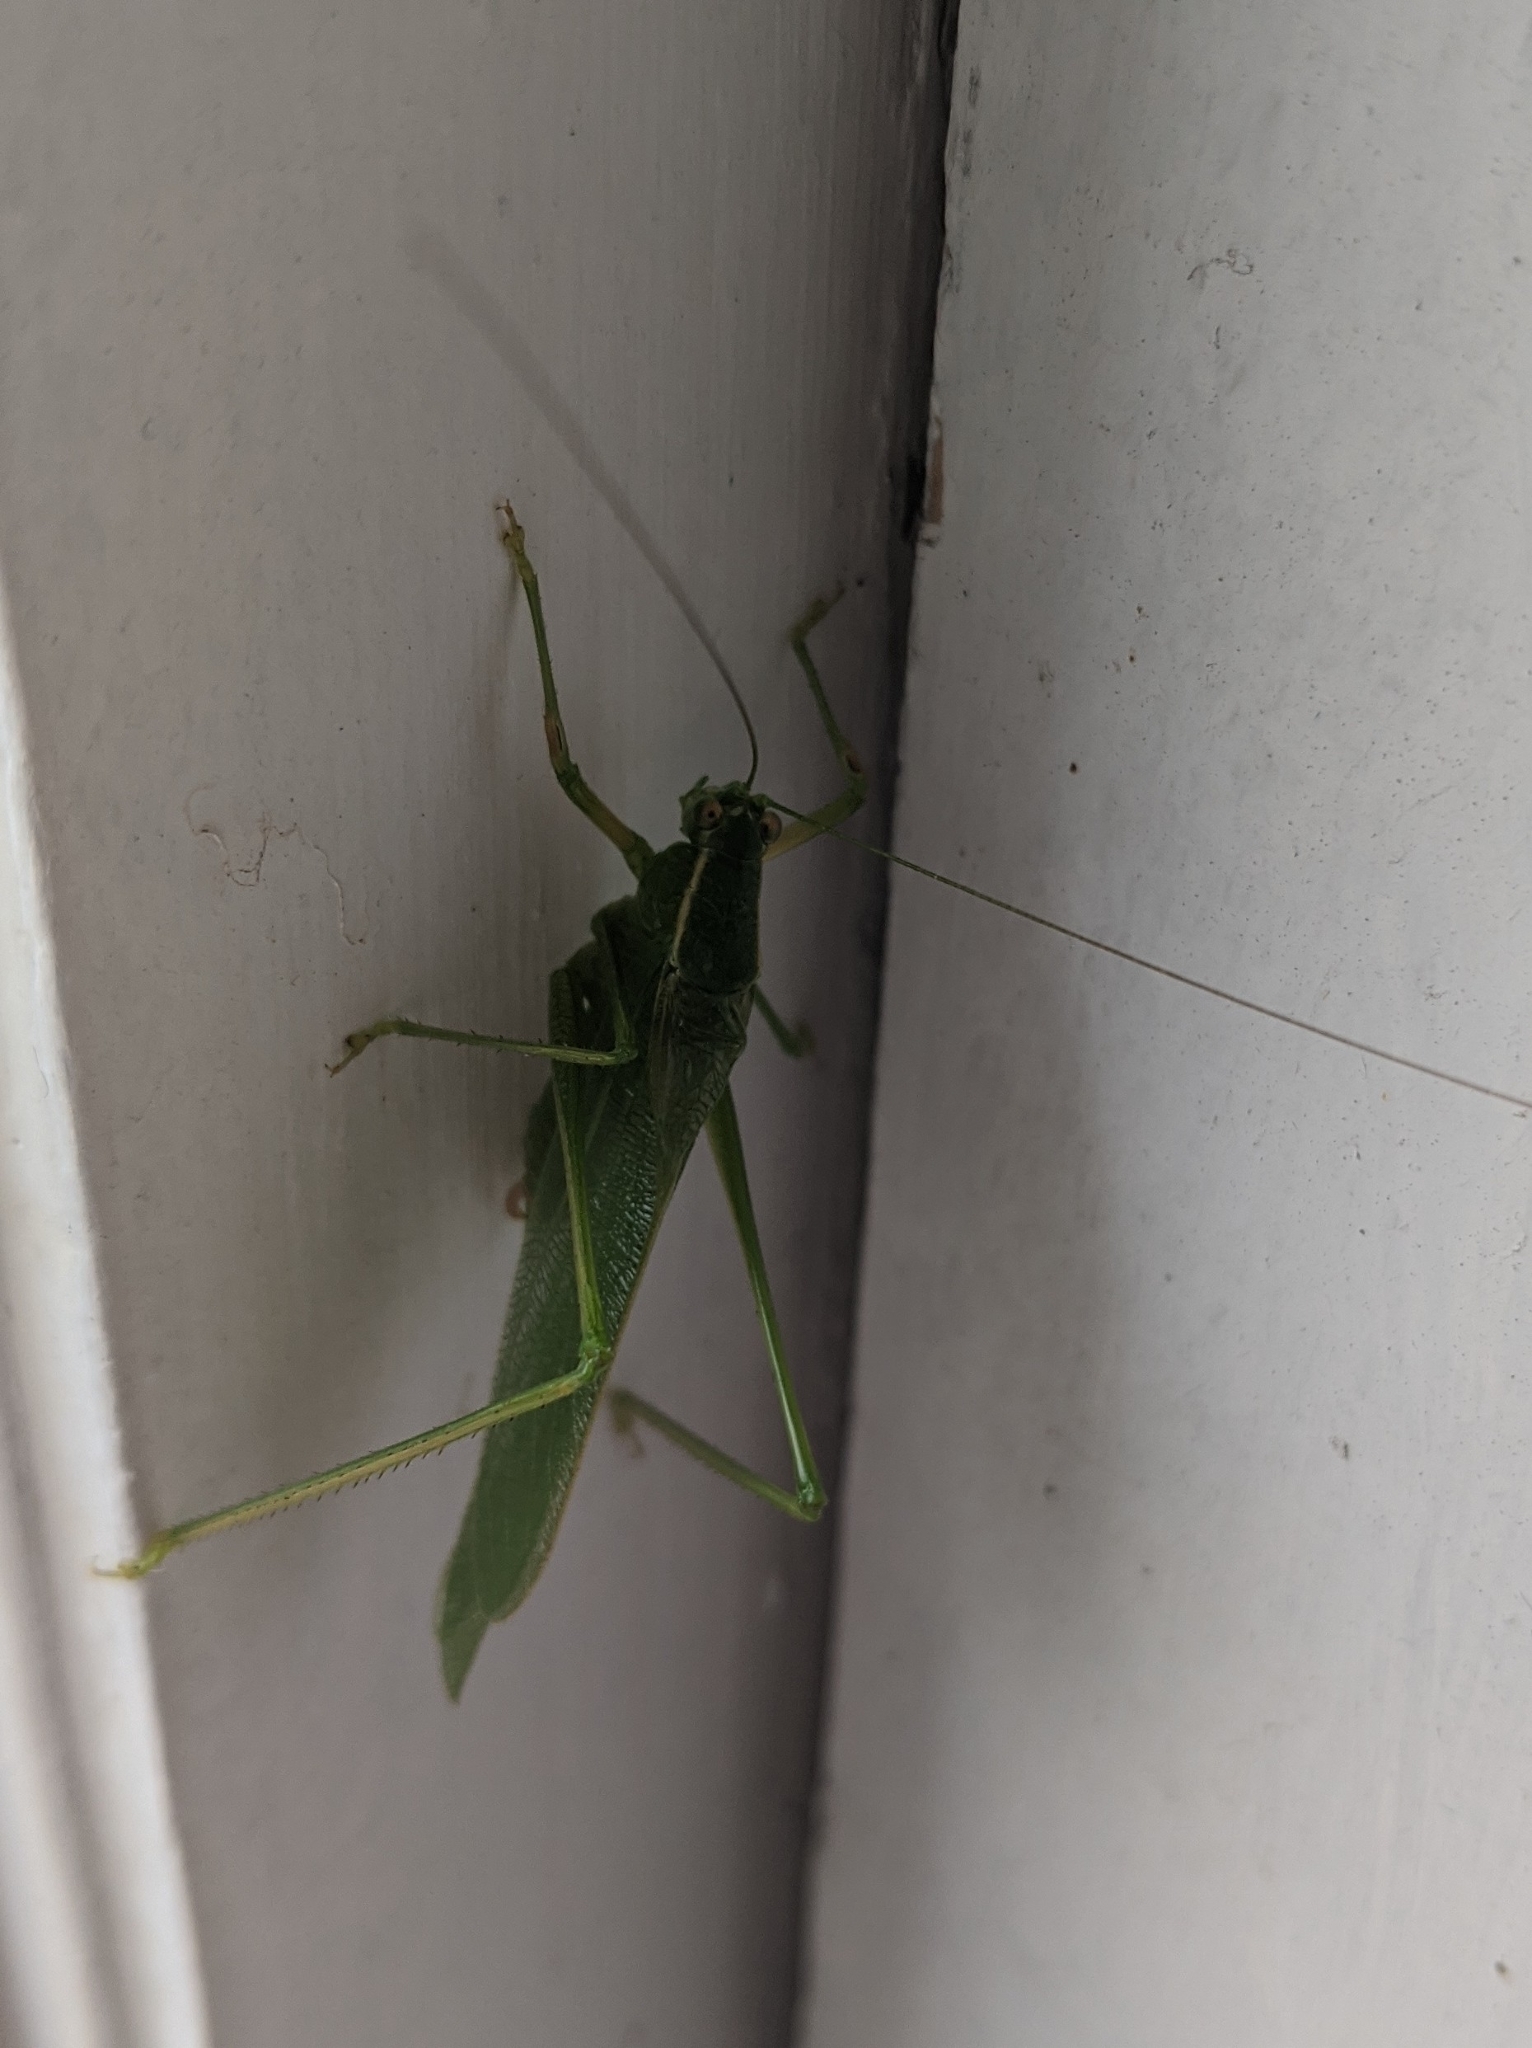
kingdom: Animalia
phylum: Arthropoda
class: Insecta
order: Orthoptera
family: Tettigoniidae
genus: Scudderia
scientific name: Scudderia septentrionalis
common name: Northern bush-katydid
